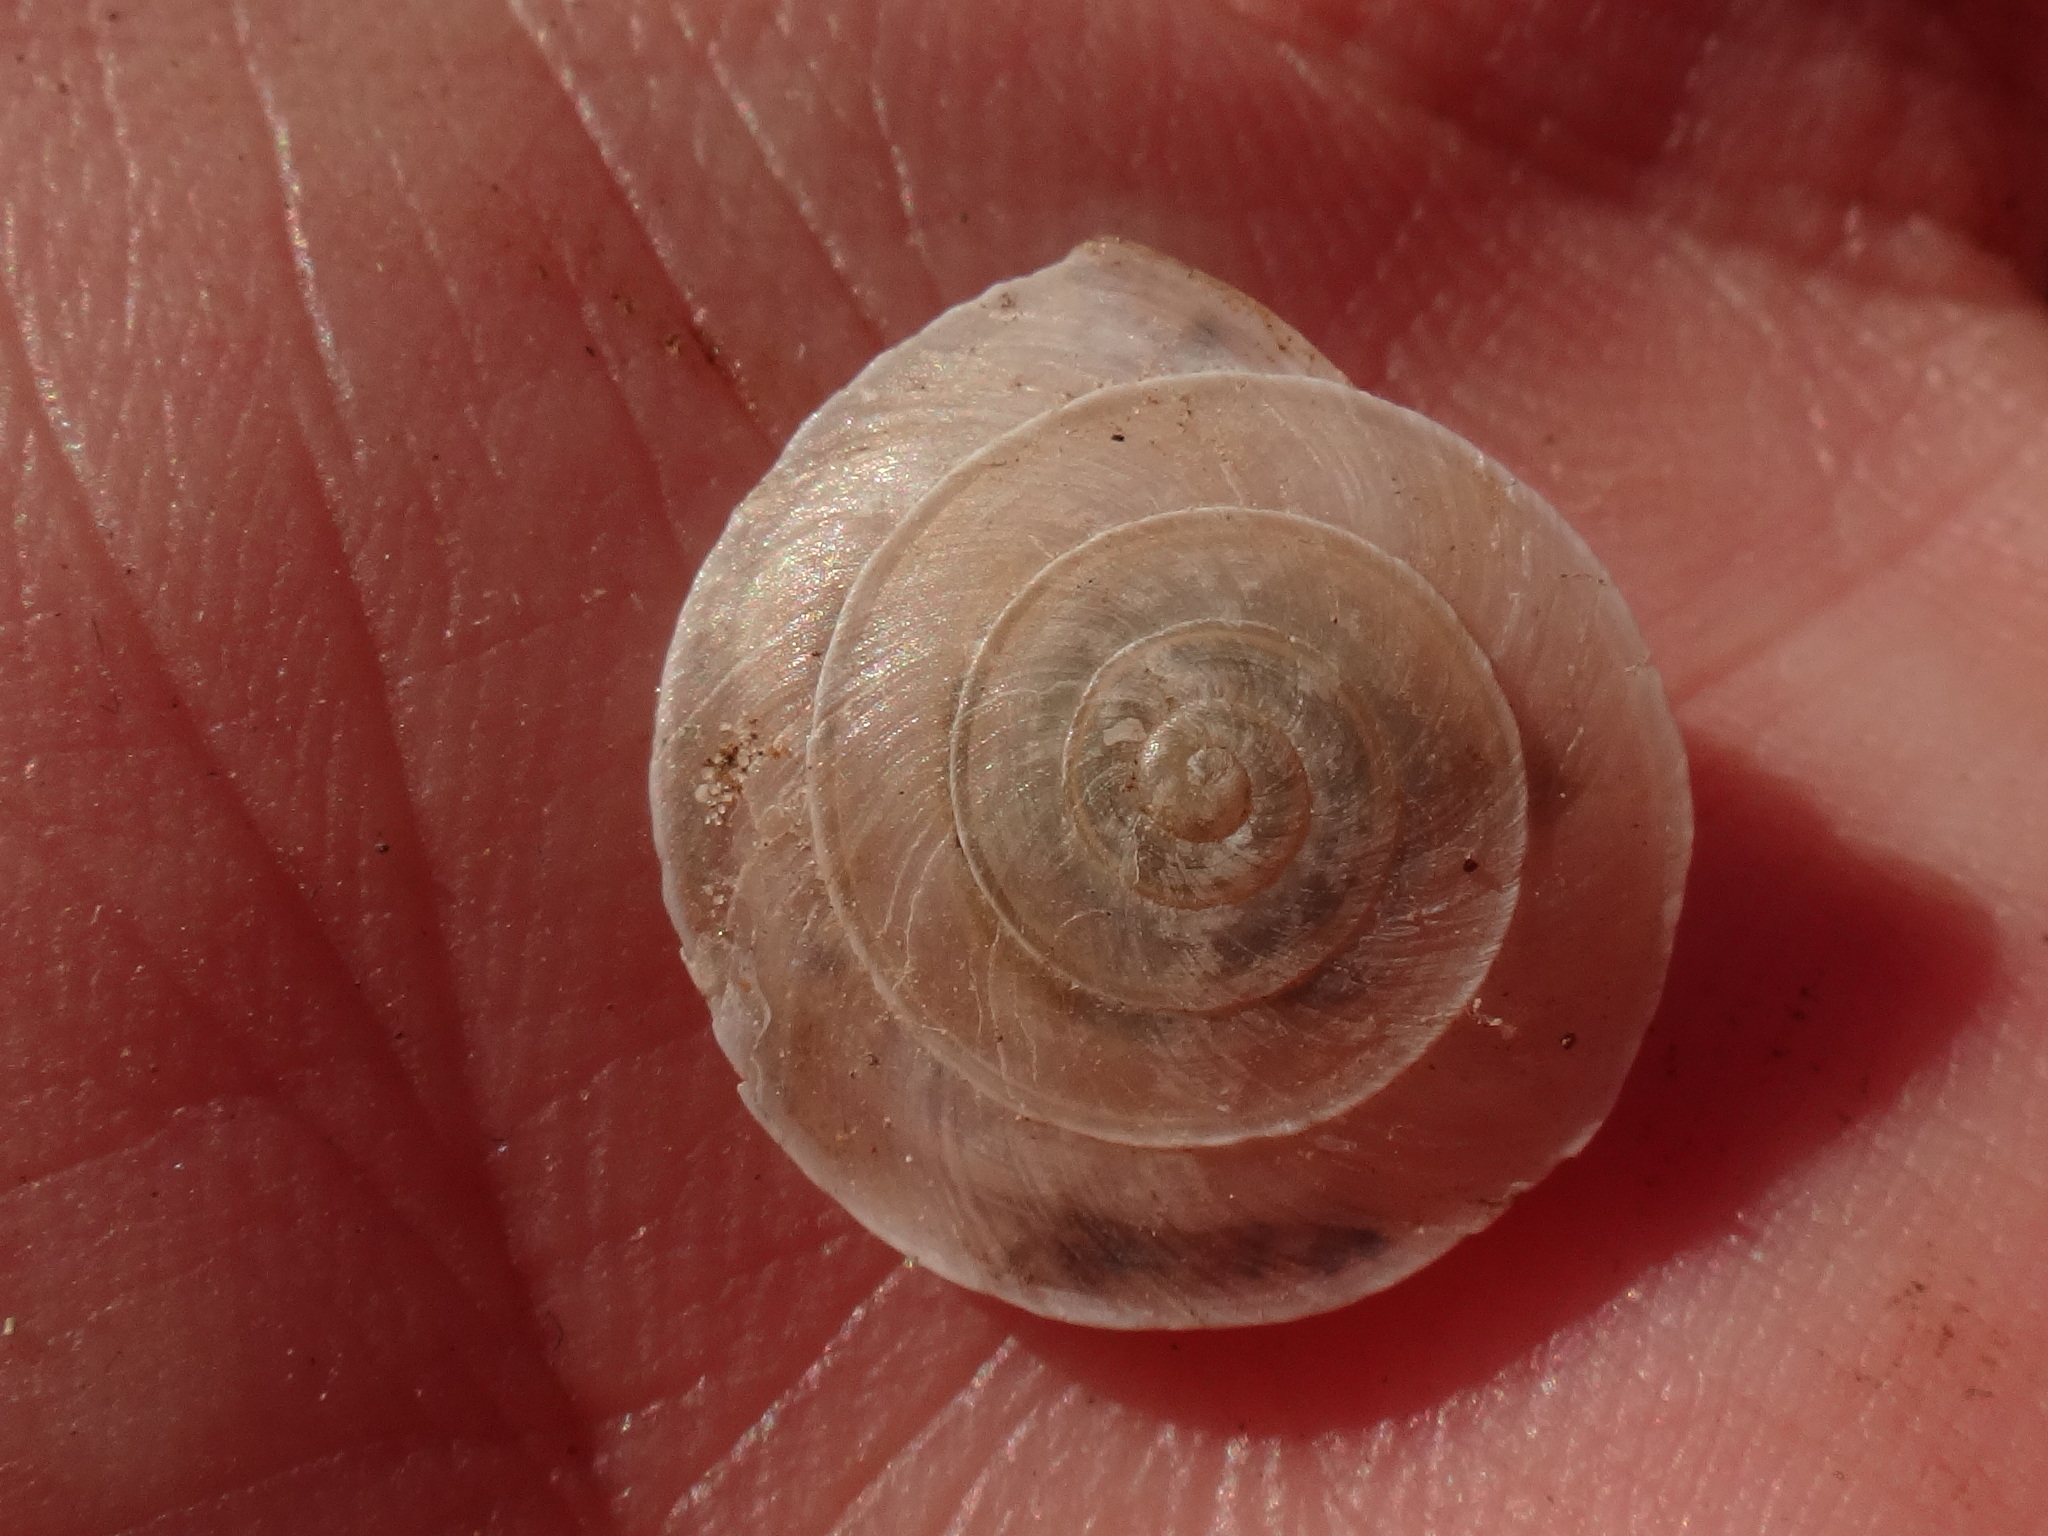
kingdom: Animalia
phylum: Mollusca
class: Gastropoda
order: Stylommatophora
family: Canariellidae
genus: Canariella
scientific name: Canariella planaria
